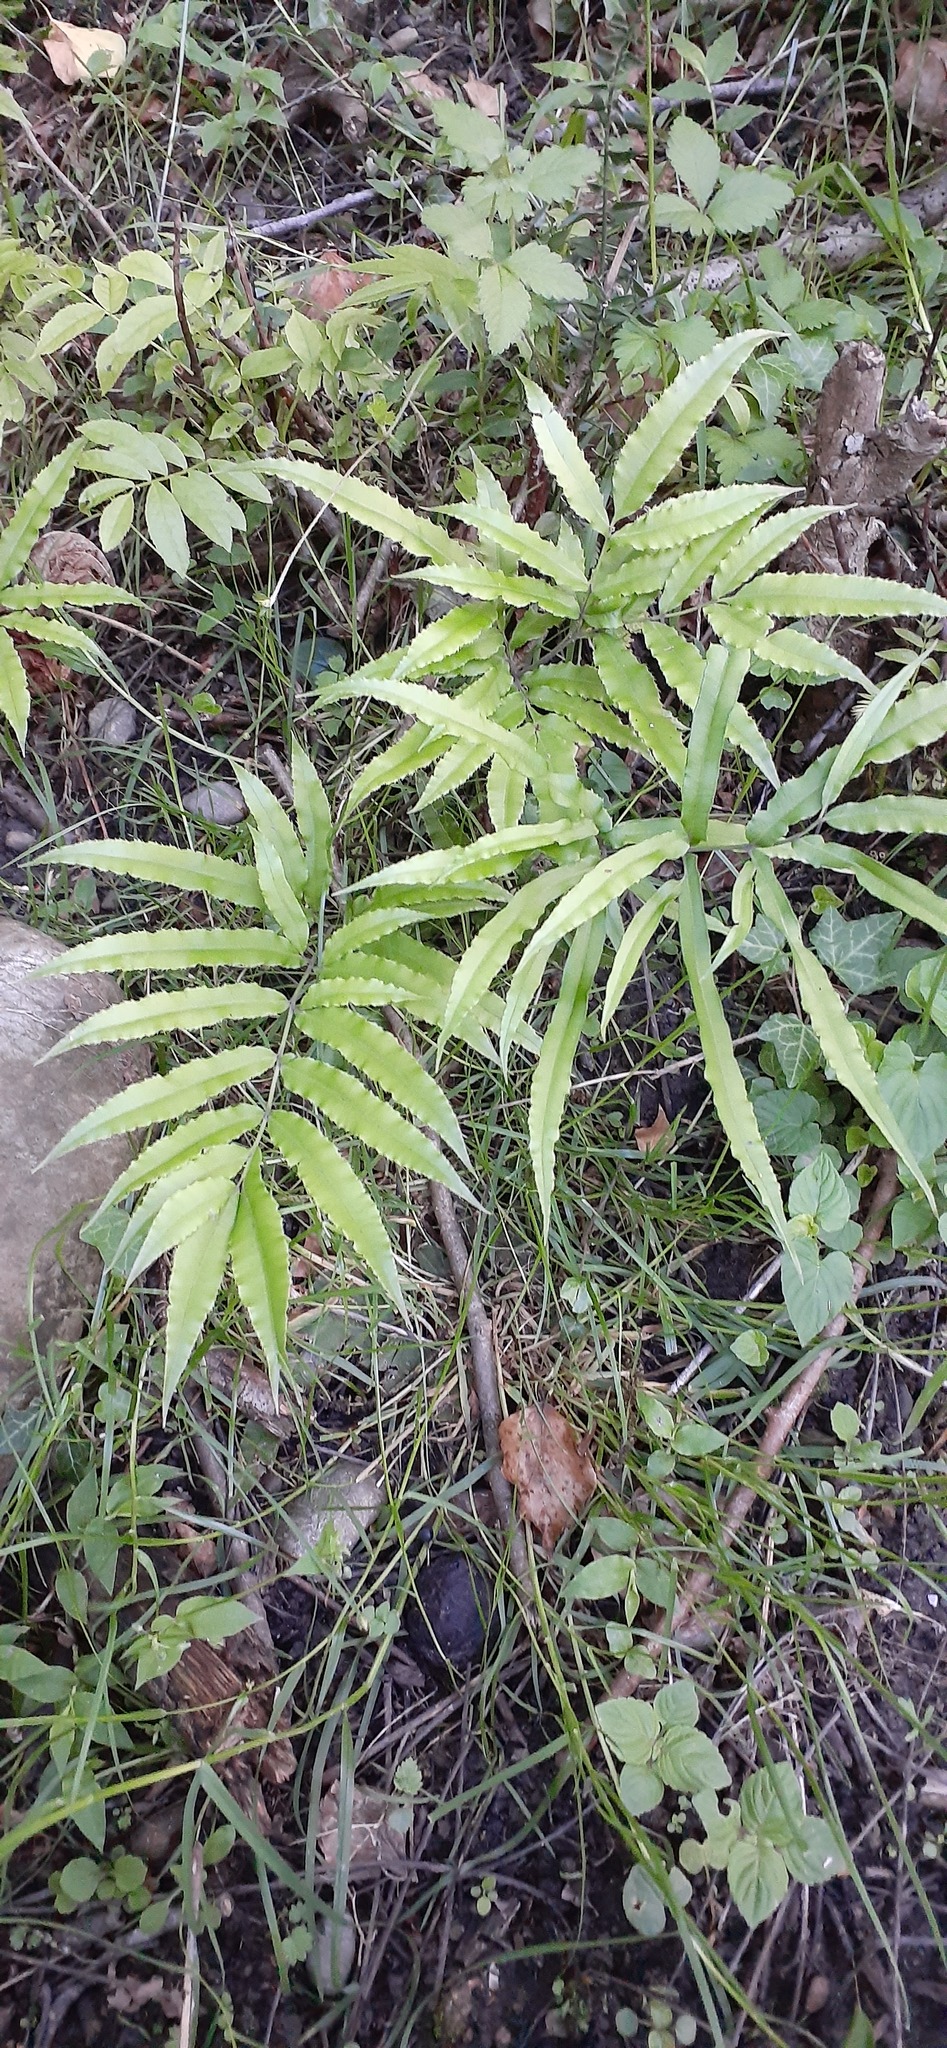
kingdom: Plantae
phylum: Tracheophyta
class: Polypodiopsida
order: Polypodiales
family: Pteridaceae
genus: Pteris
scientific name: Pteris cretica
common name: Ribbon fern
